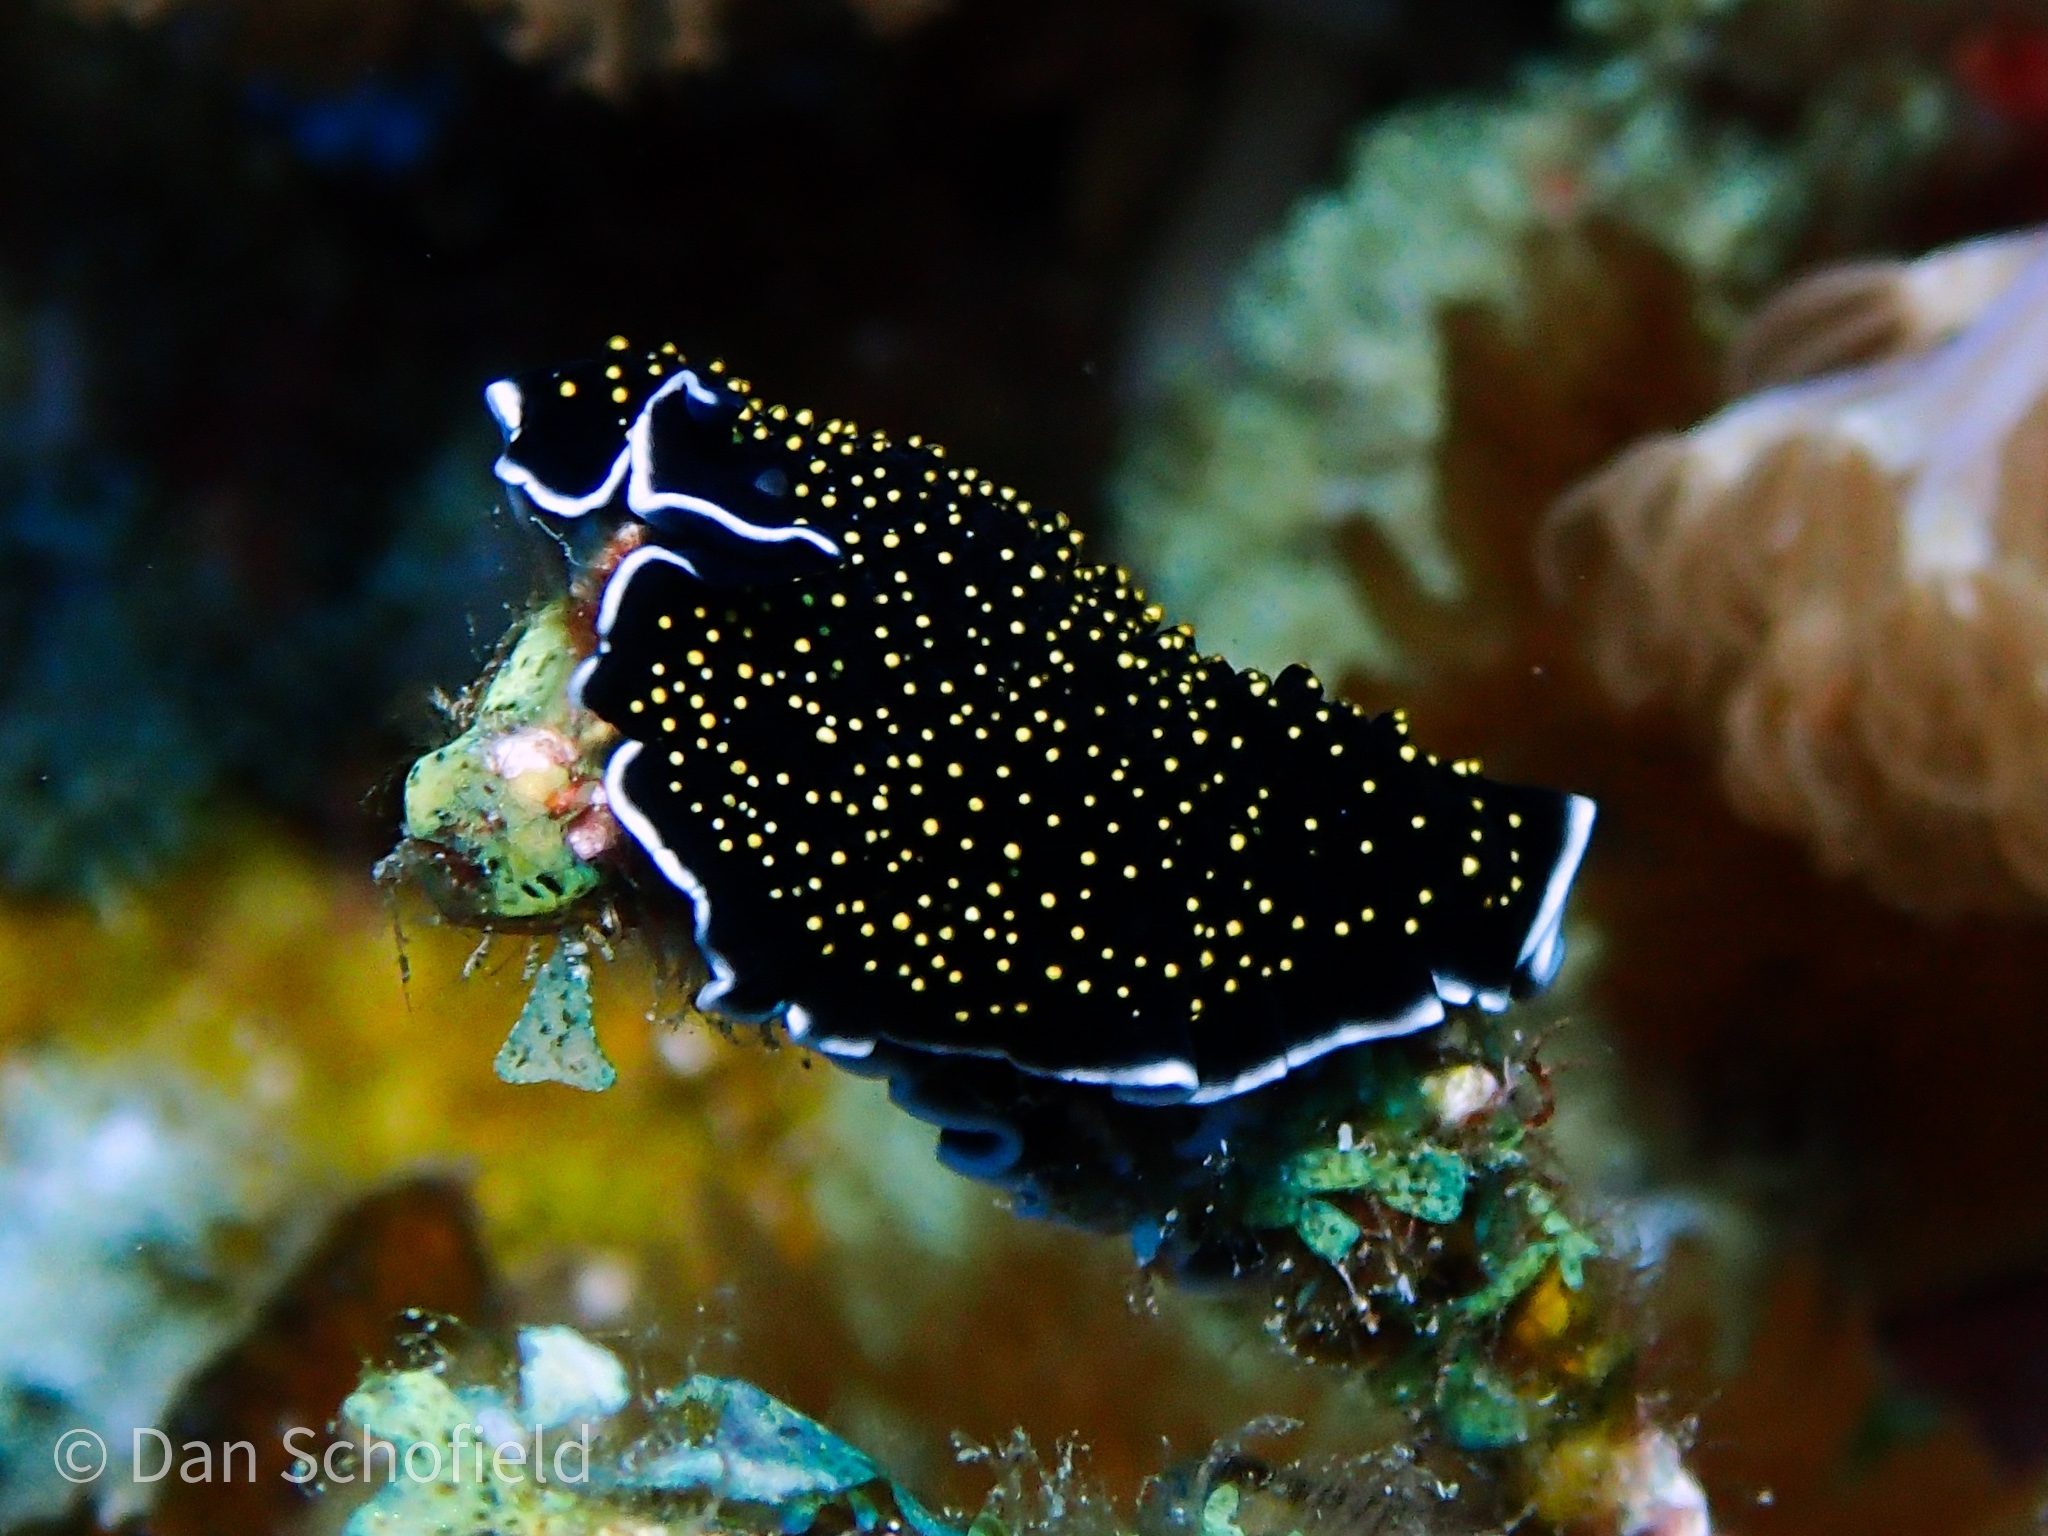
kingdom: Animalia
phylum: Platyhelminthes
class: Turbellaria
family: Pseudocerotidae
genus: Thysanozoon
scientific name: Thysanozoon nigropapillosum
